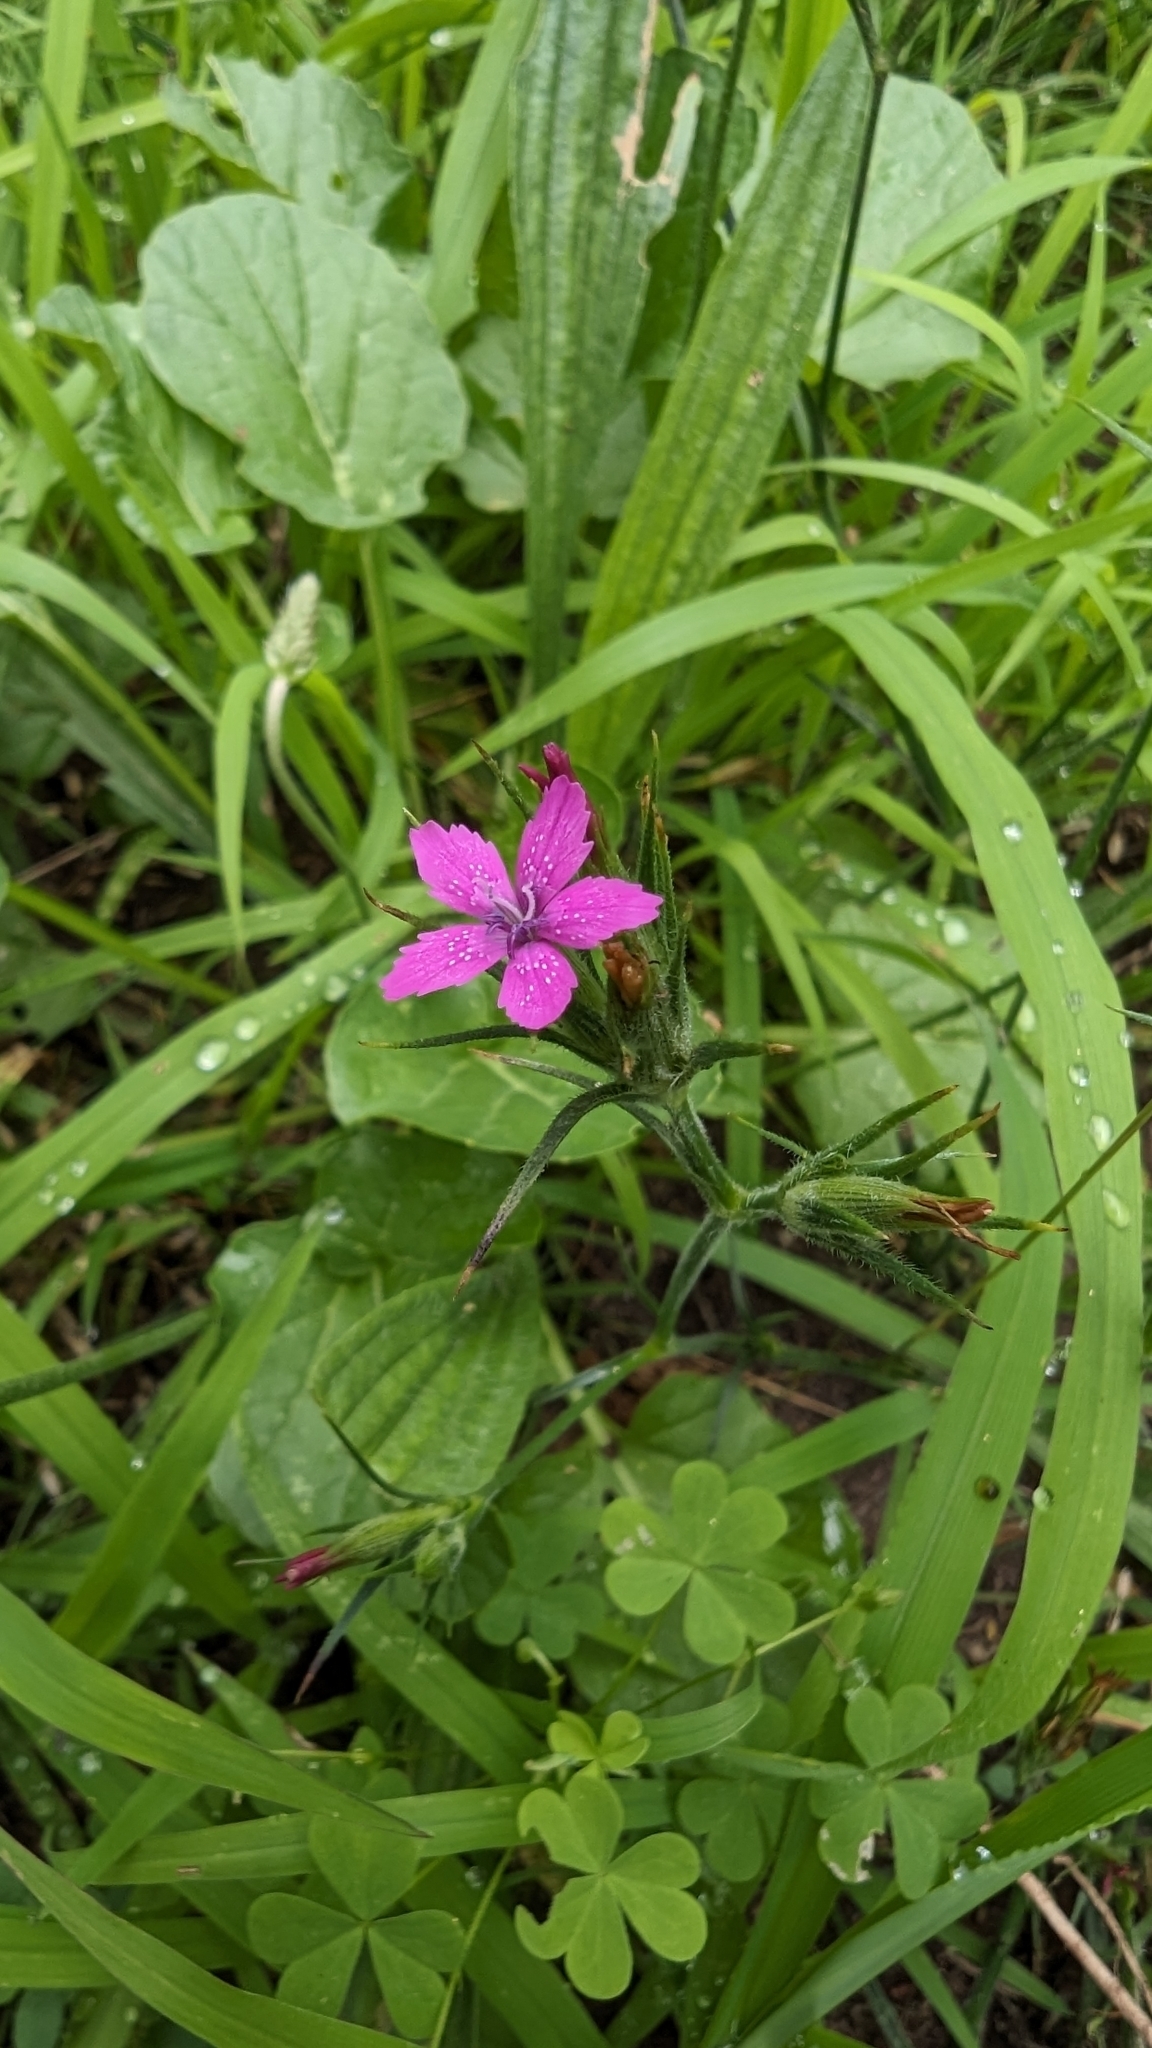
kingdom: Plantae
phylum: Tracheophyta
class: Magnoliopsida
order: Caryophyllales
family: Caryophyllaceae
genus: Dianthus
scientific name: Dianthus armeria
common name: Deptford pink
